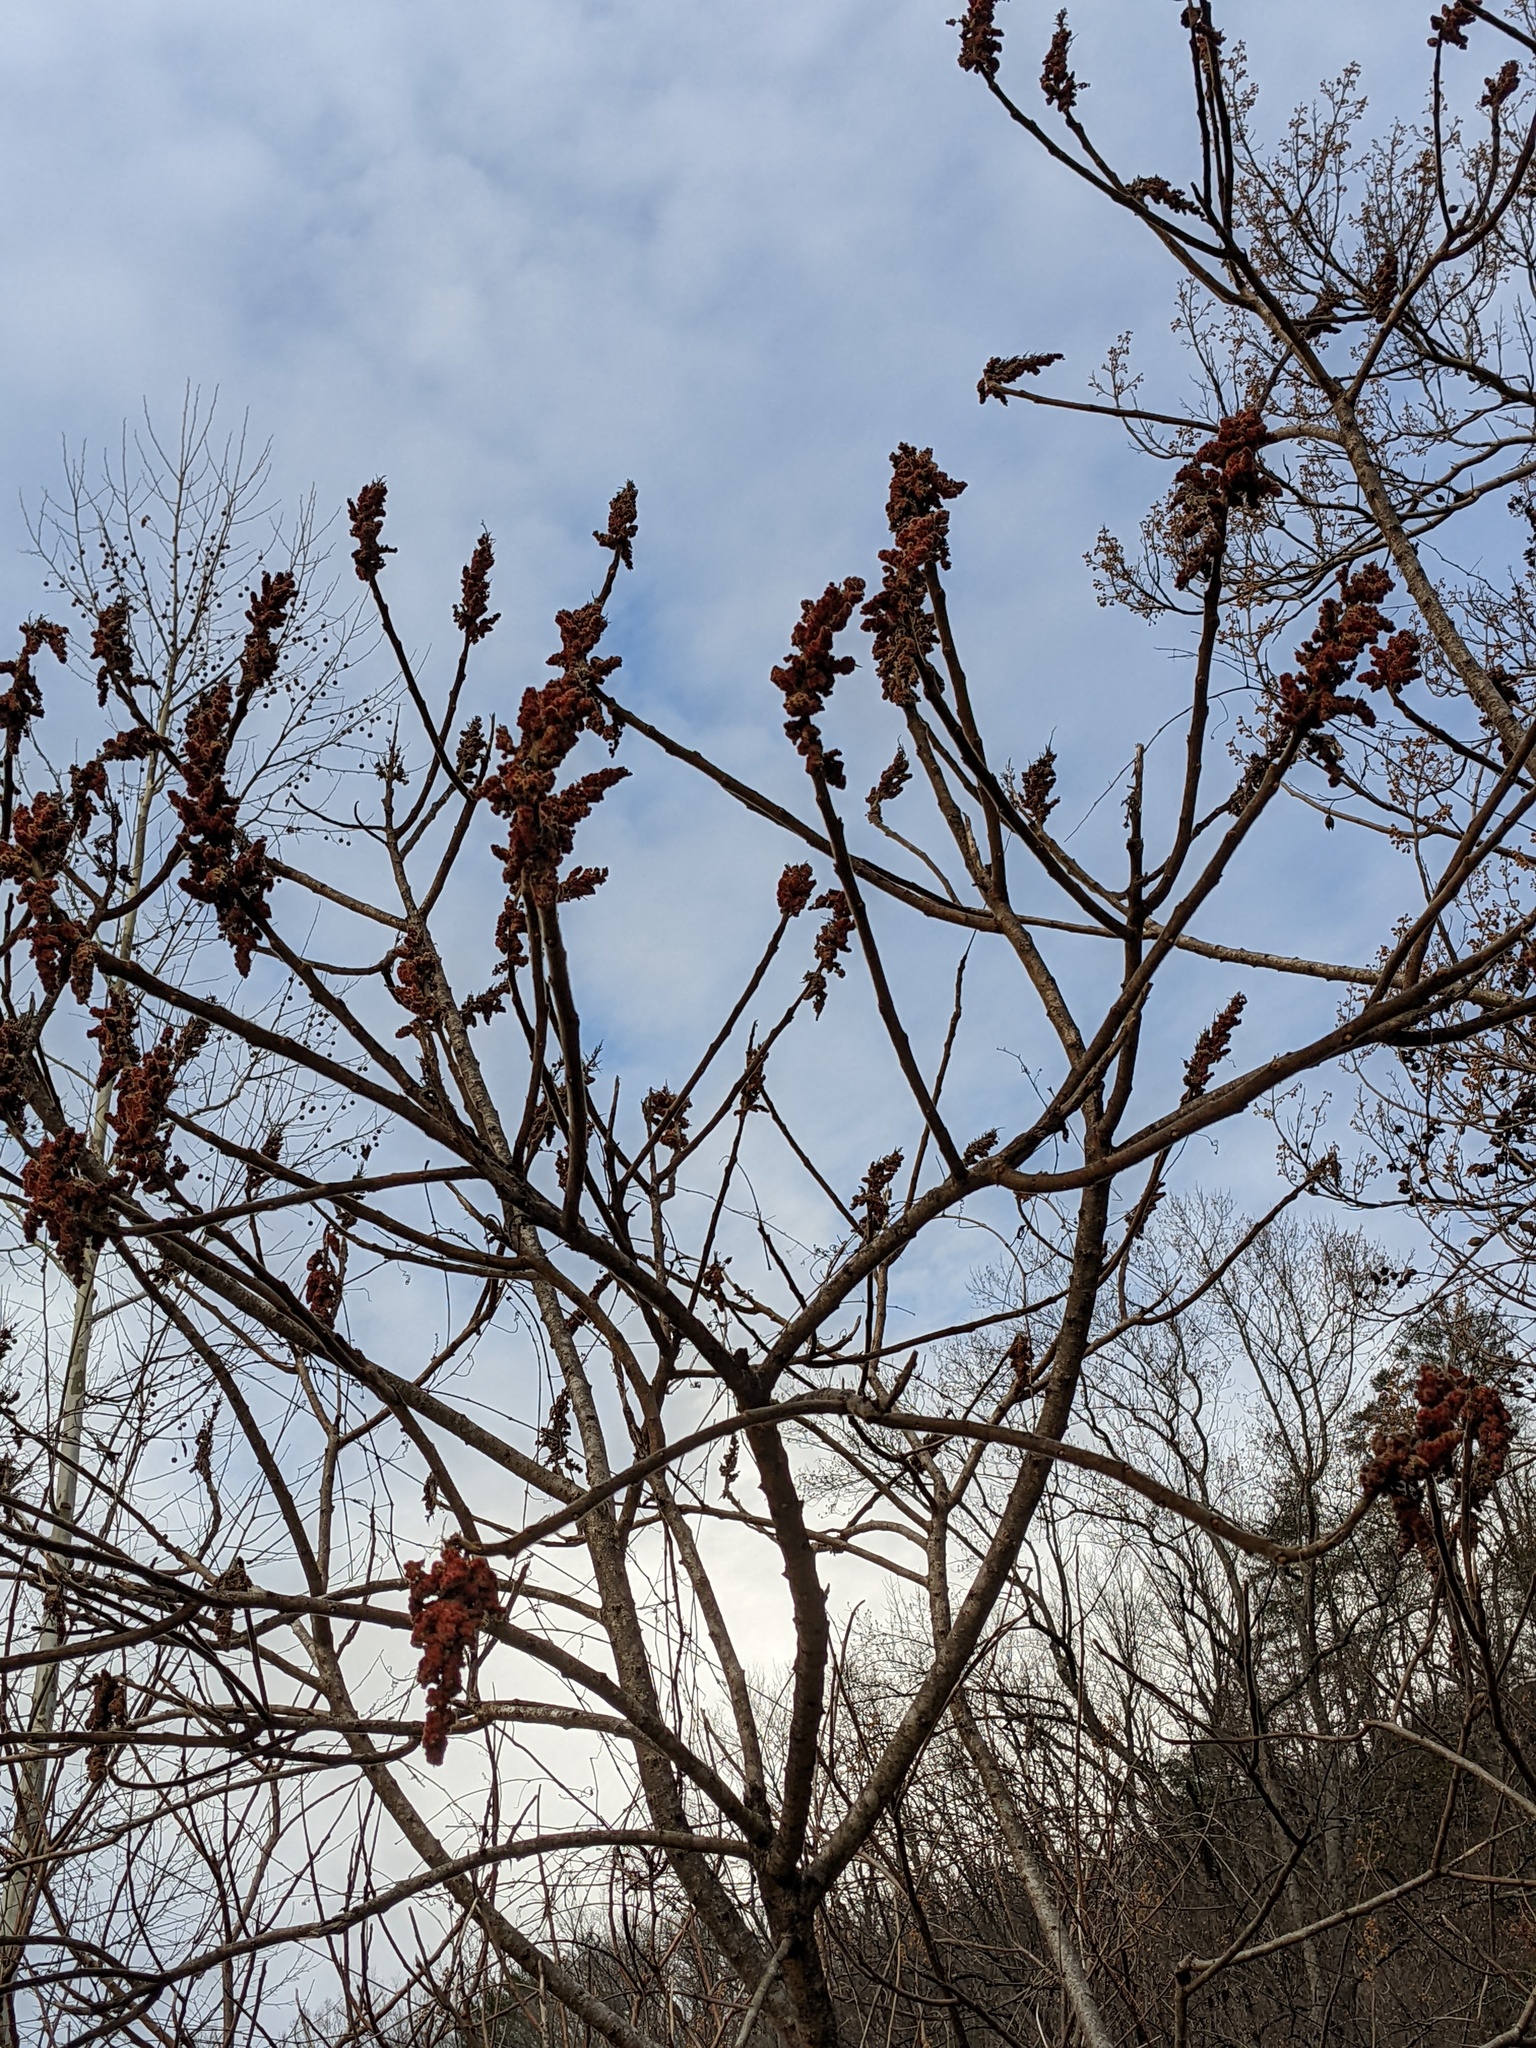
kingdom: Plantae
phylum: Tracheophyta
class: Magnoliopsida
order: Sapindales
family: Anacardiaceae
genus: Rhus
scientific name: Rhus typhina
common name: Staghorn sumac
